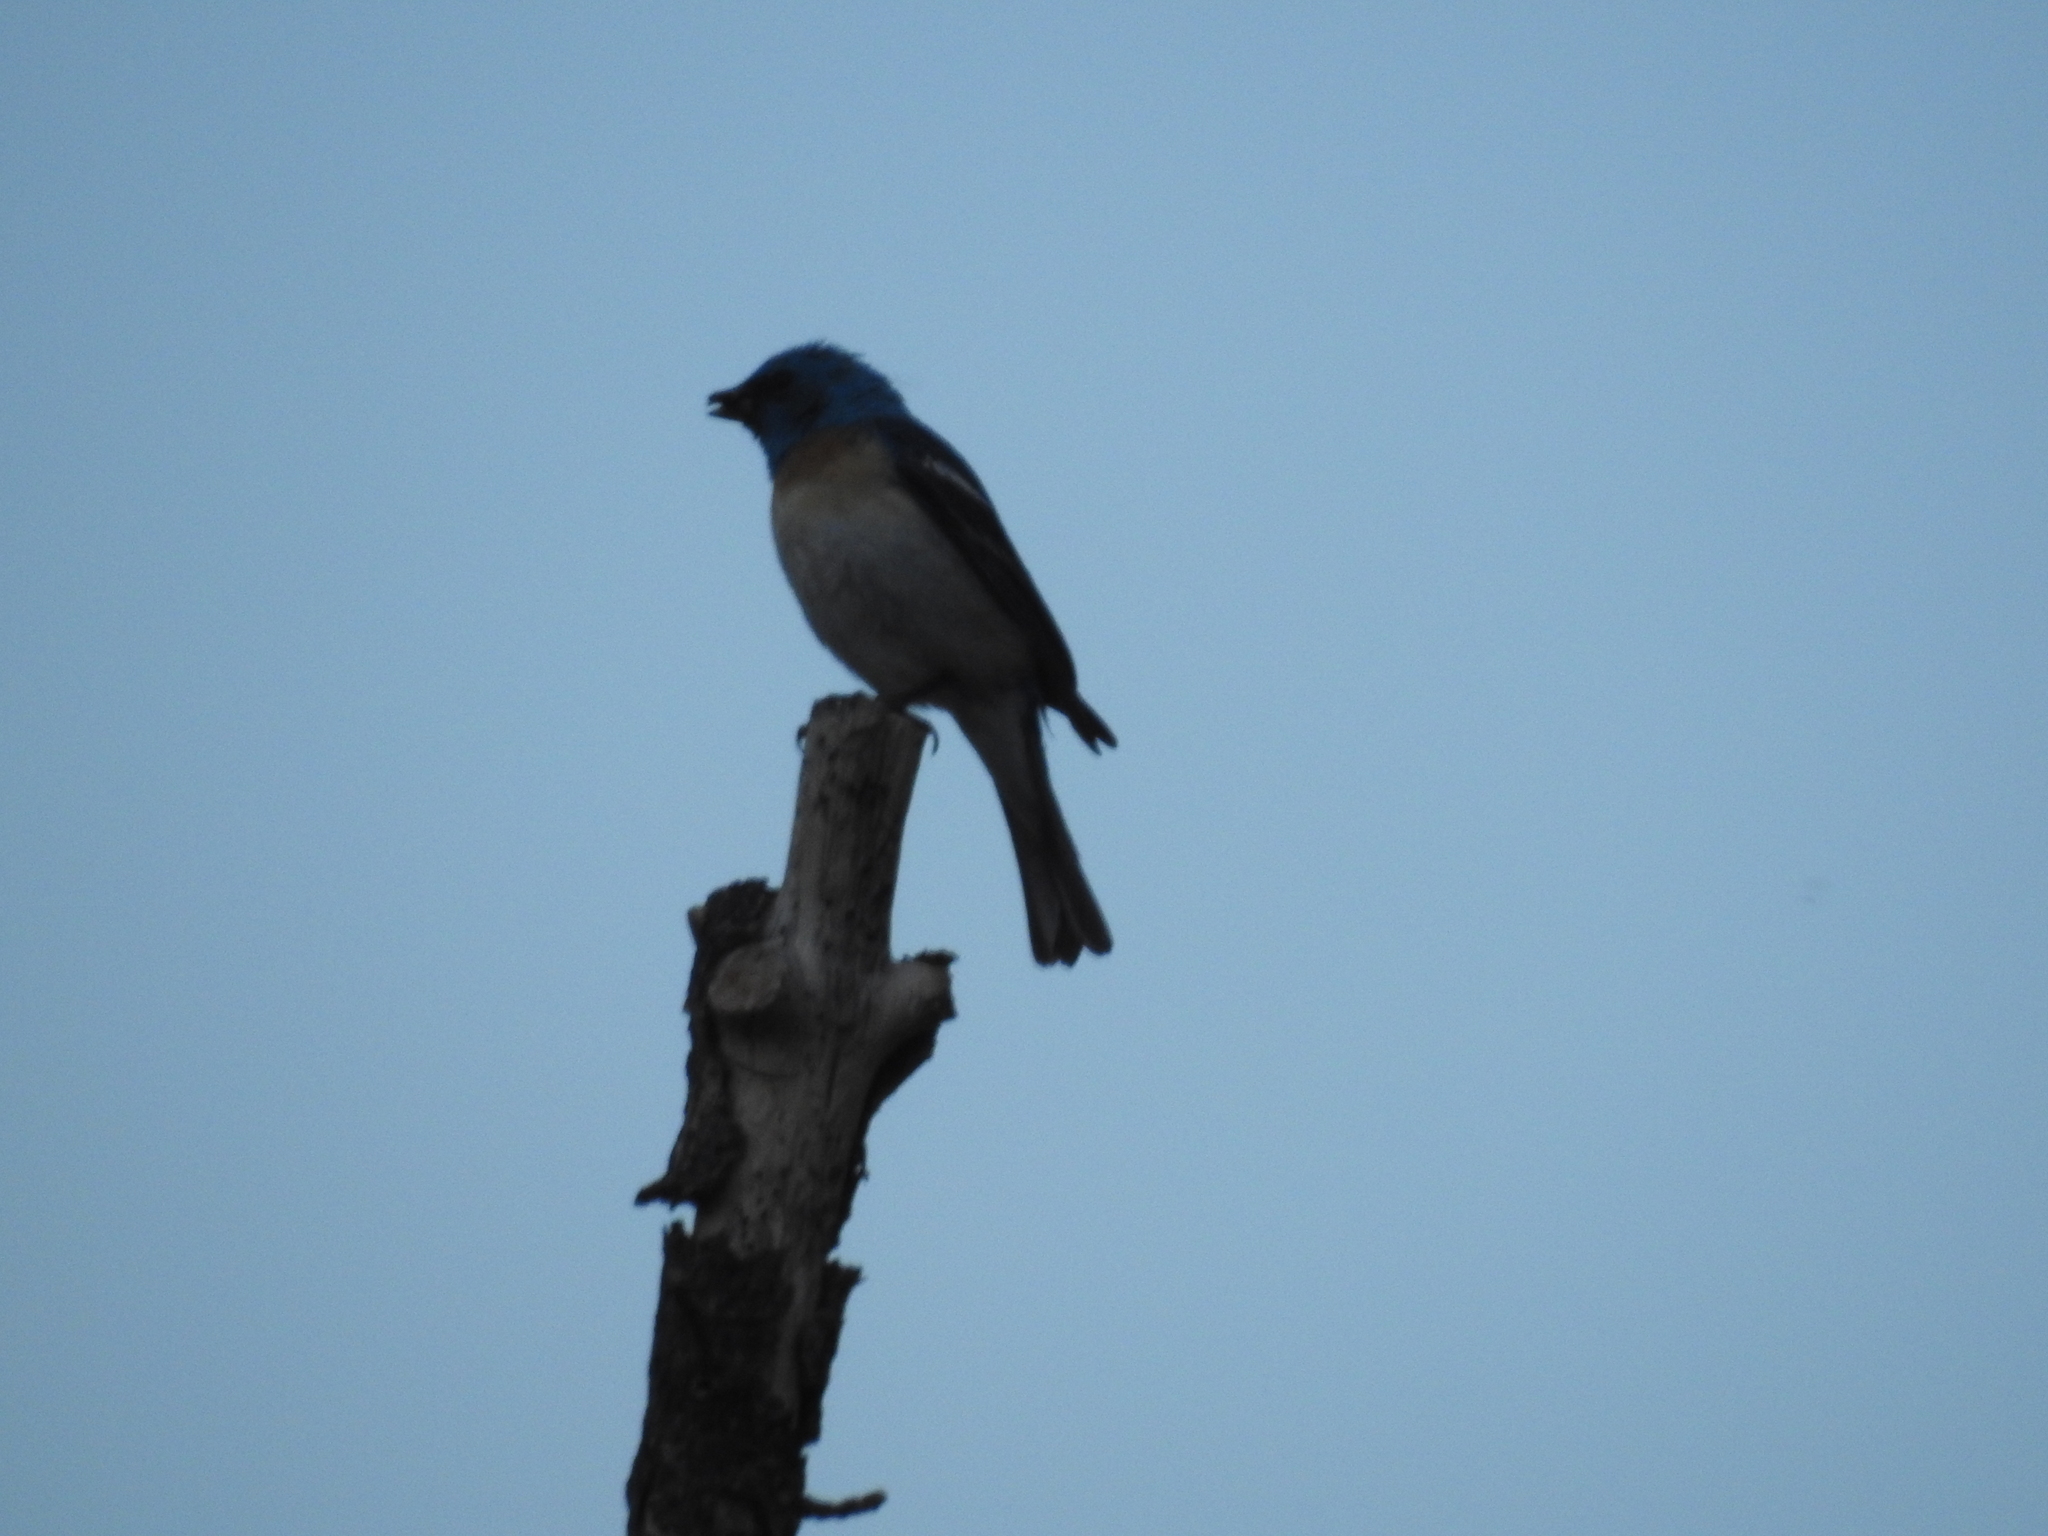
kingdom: Animalia
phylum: Chordata
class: Aves
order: Passeriformes
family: Cardinalidae
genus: Passerina
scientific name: Passerina amoena
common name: Lazuli bunting
